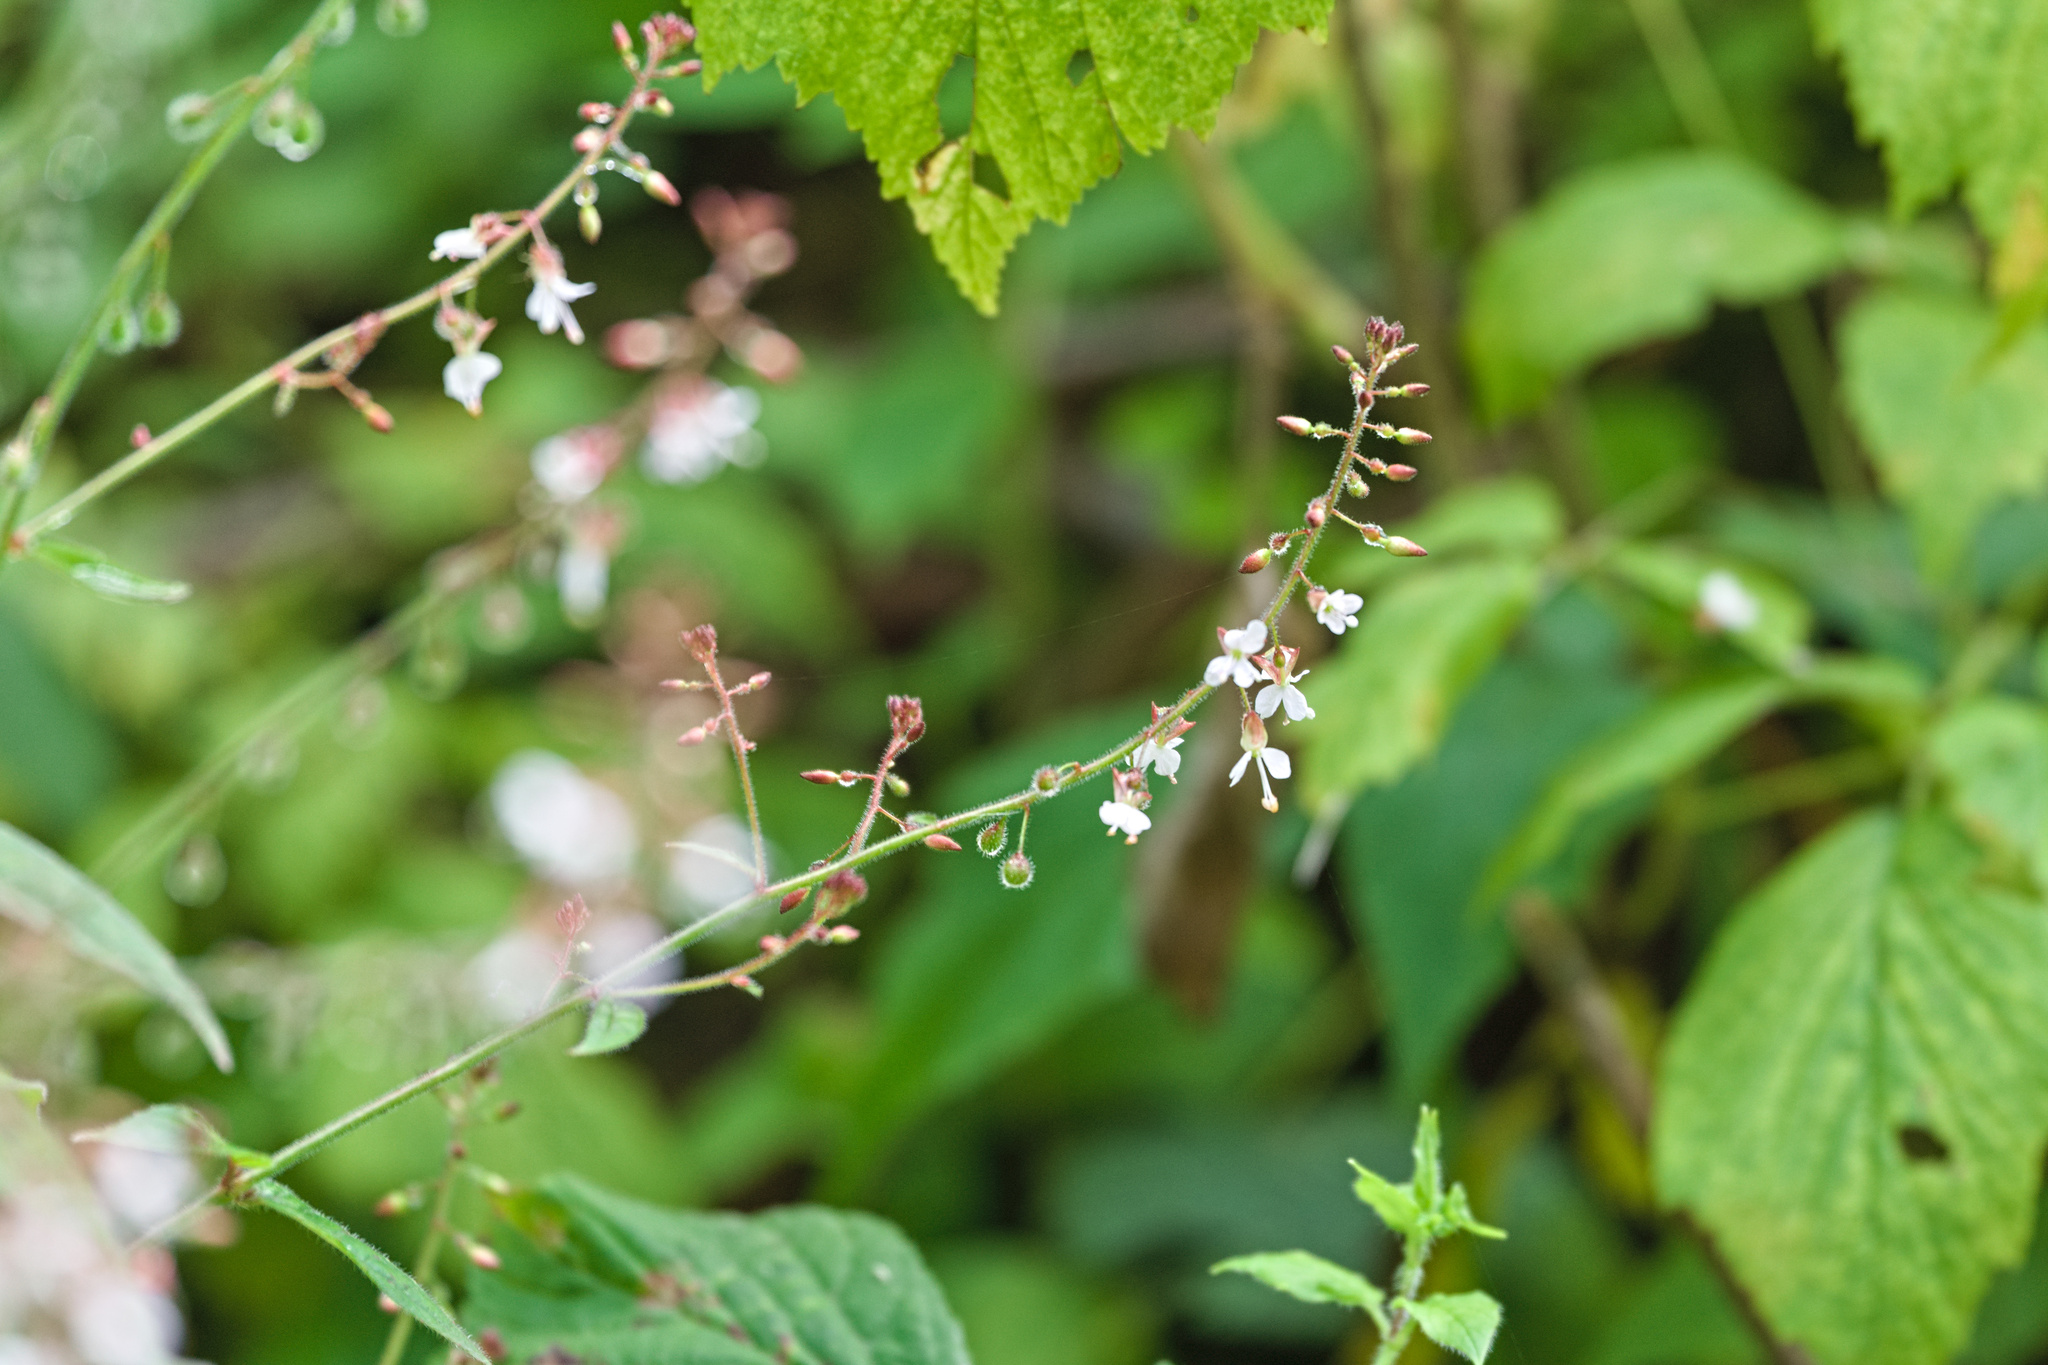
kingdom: Plantae
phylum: Tracheophyta
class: Magnoliopsida
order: Myrtales
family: Onagraceae
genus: Circaea
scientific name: Circaea lutetiana
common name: Enchanter's-nightshade
